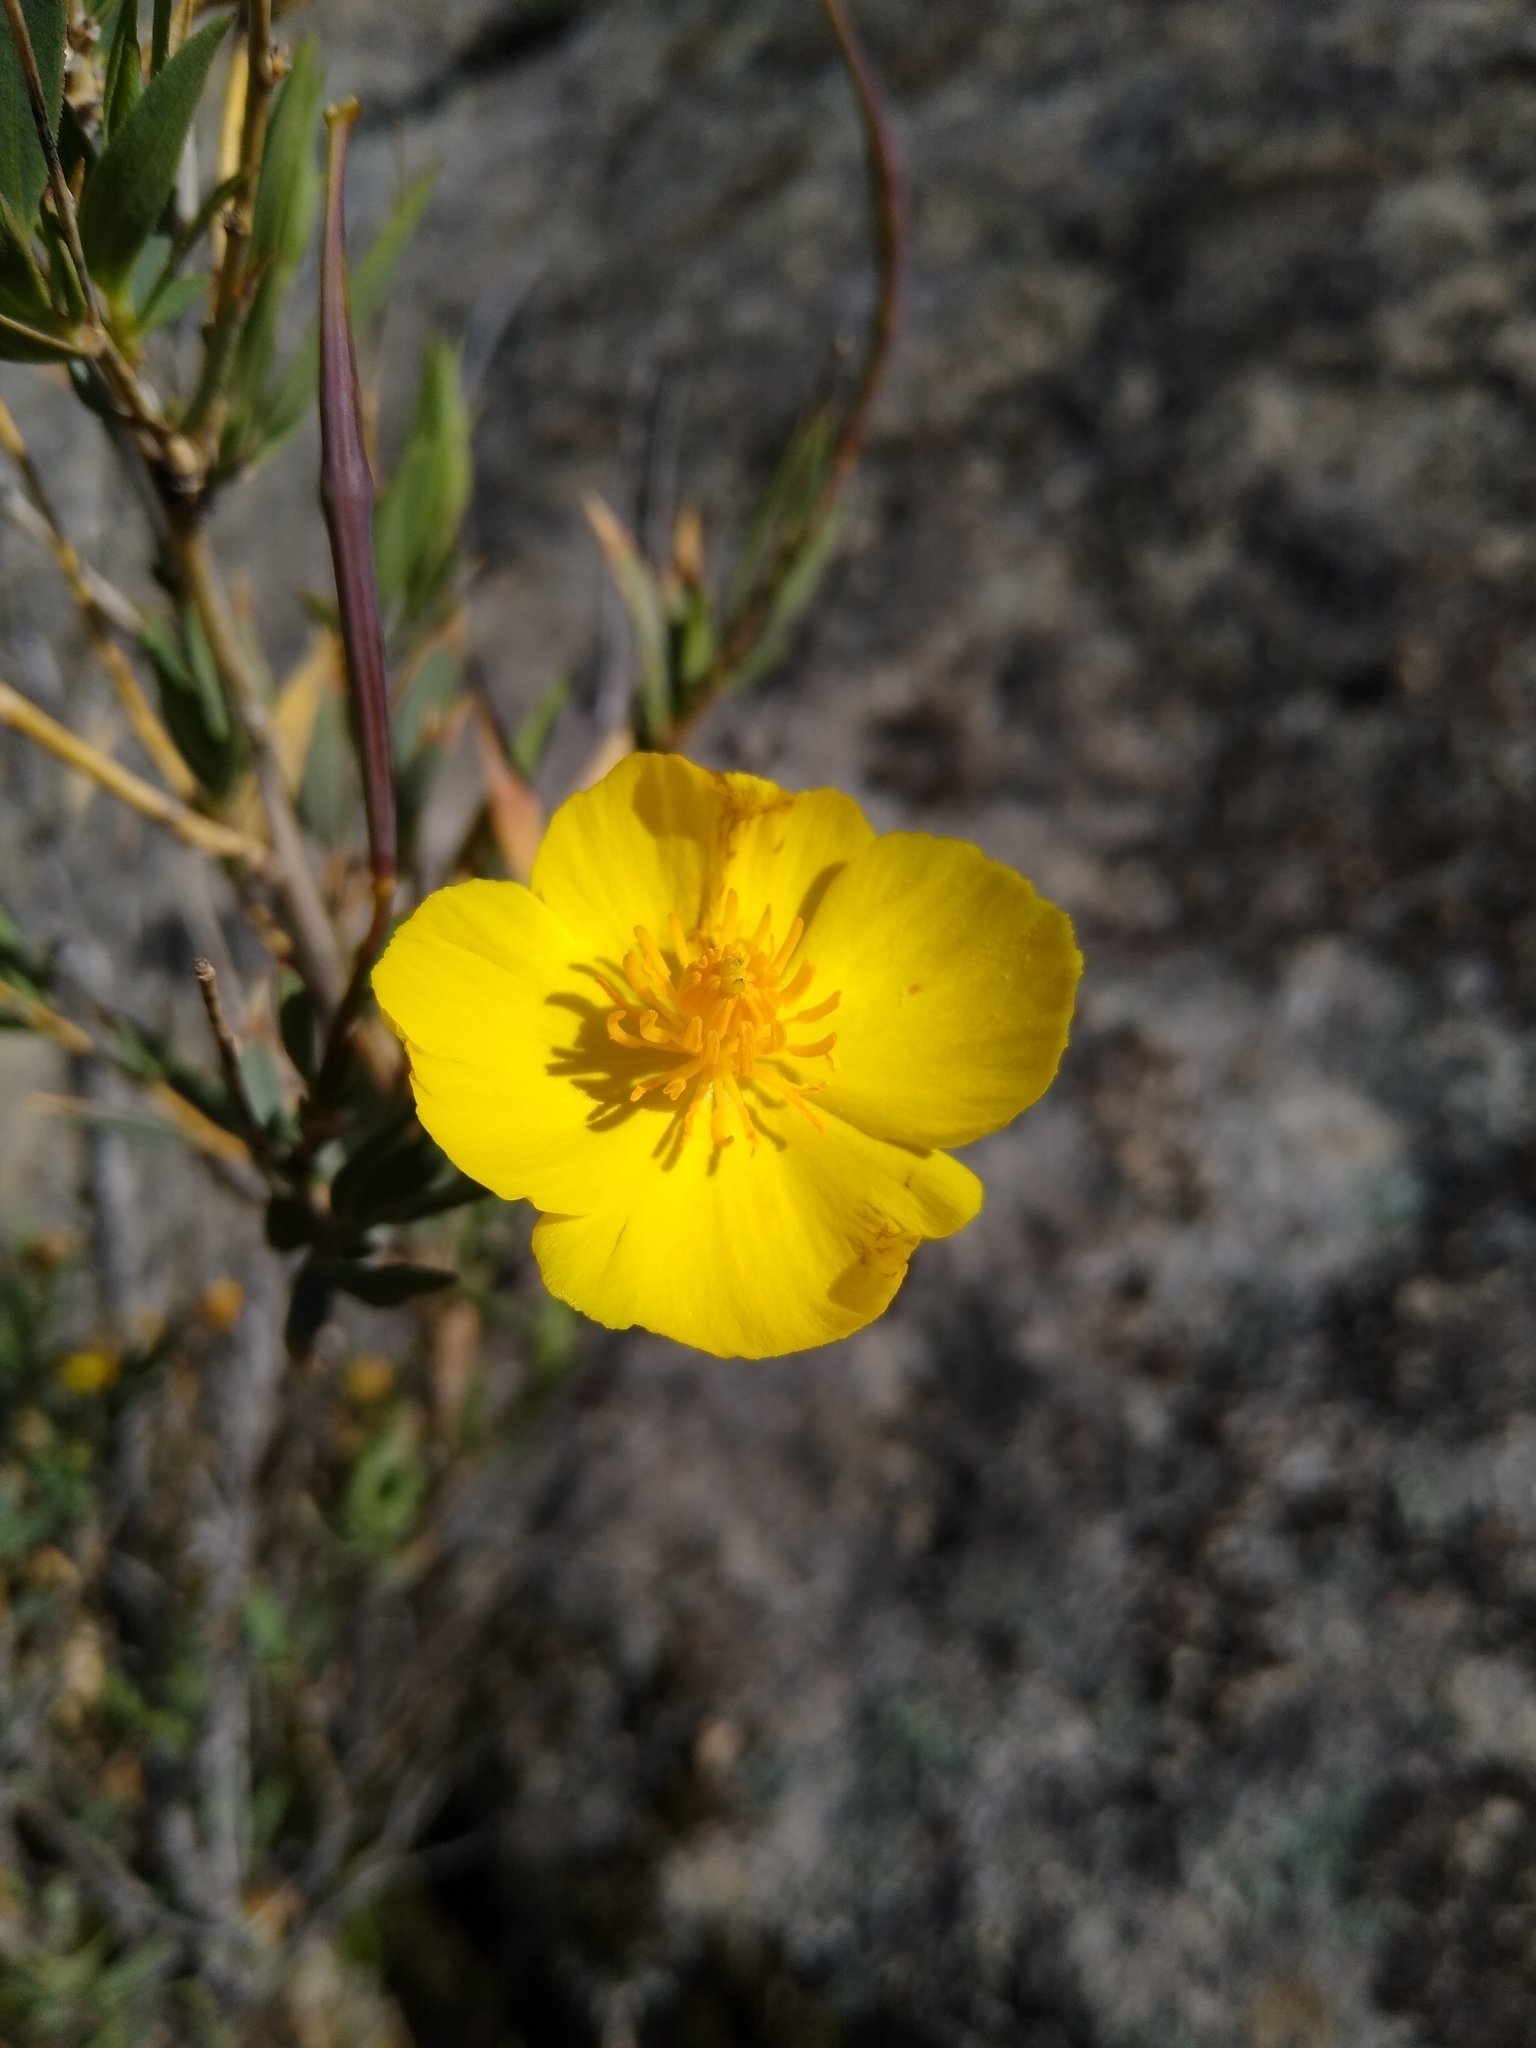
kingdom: Plantae
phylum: Tracheophyta
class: Magnoliopsida
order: Ranunculales
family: Papaveraceae
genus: Dendromecon
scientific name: Dendromecon rigida
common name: Tree poppy
